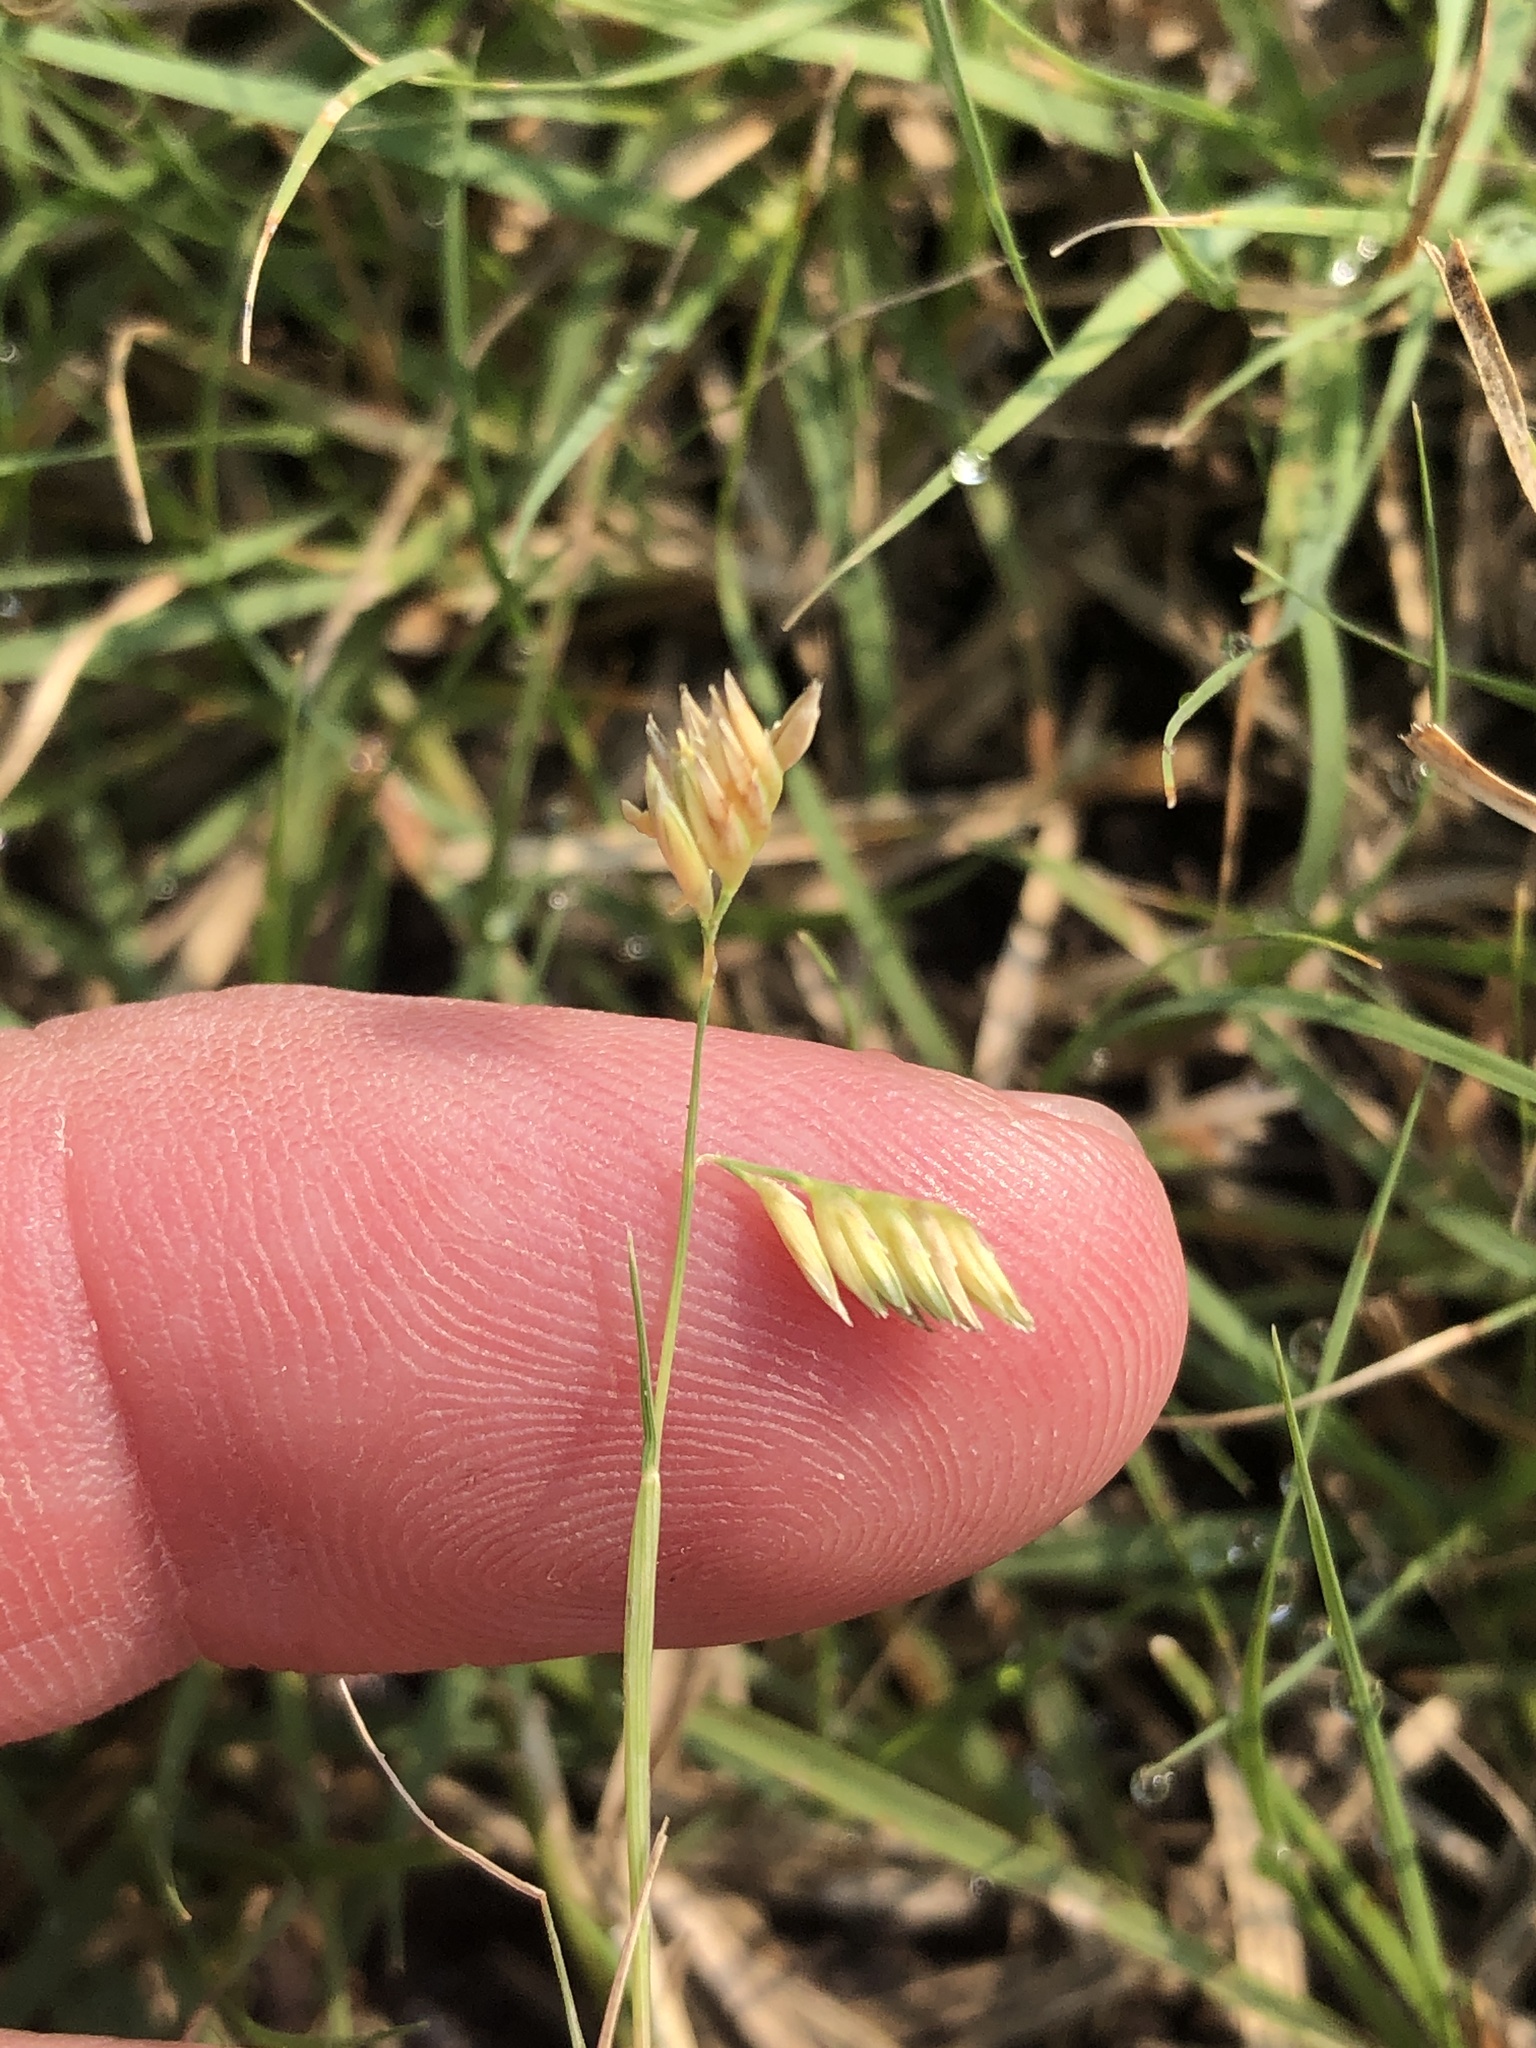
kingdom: Plantae
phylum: Tracheophyta
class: Liliopsida
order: Poales
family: Poaceae
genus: Bouteloua
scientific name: Bouteloua dactyloides
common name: Buffalo grass
